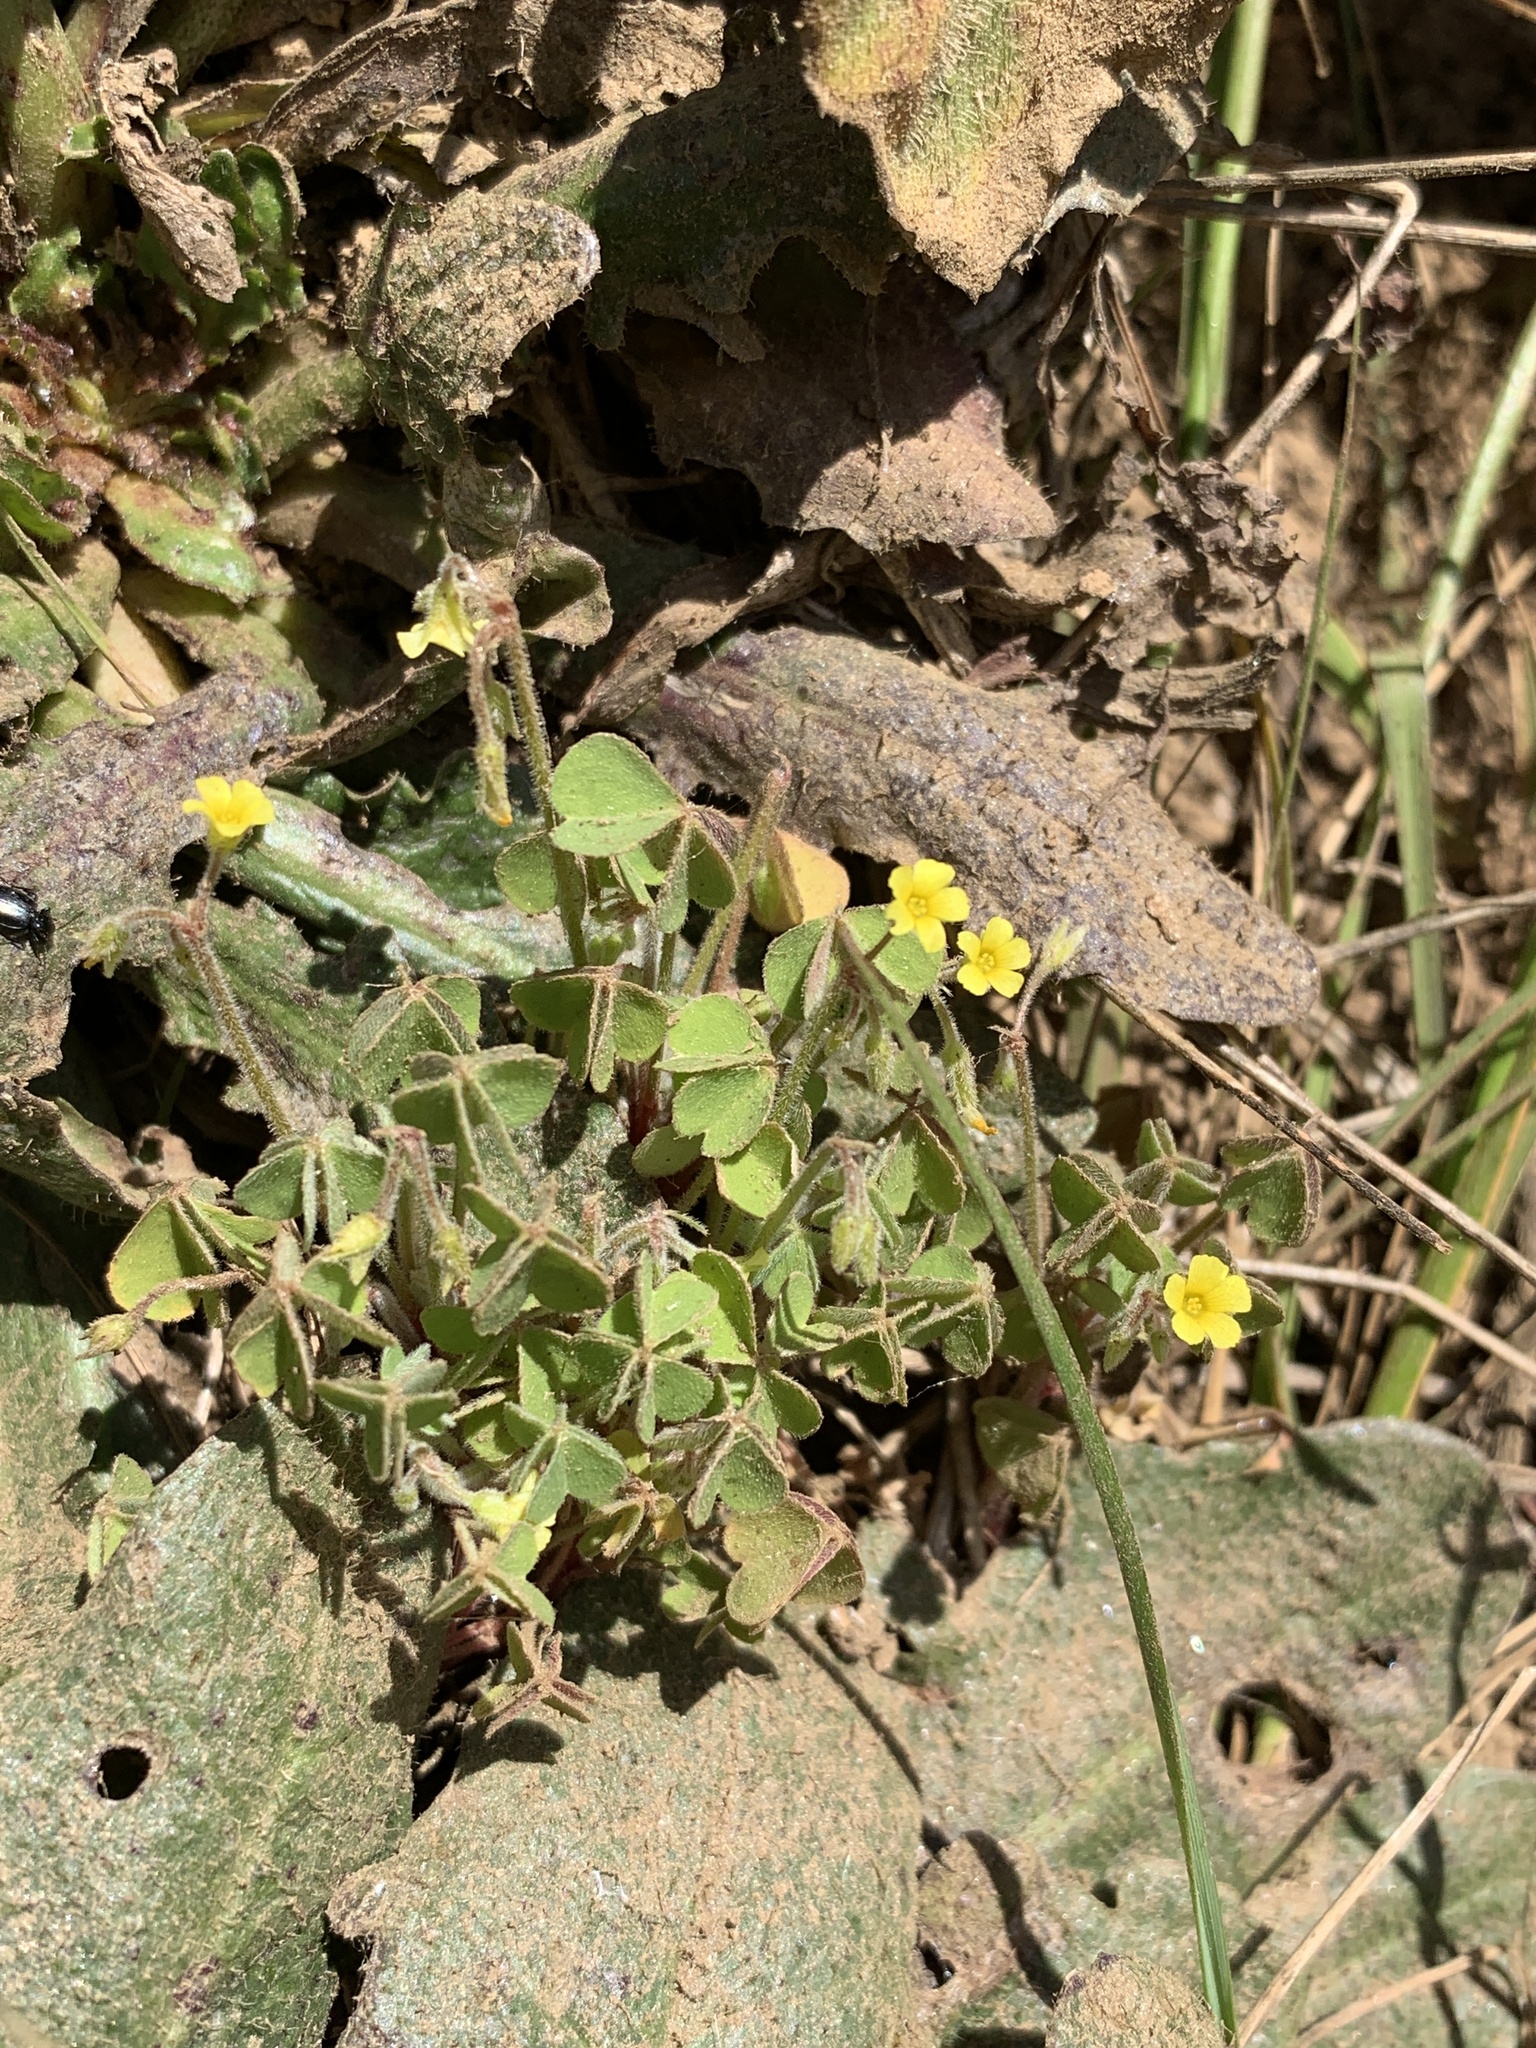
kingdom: Plantae
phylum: Tracheophyta
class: Magnoliopsida
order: Oxalidales
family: Oxalidaceae
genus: Oxalis
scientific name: Oxalis laxa
